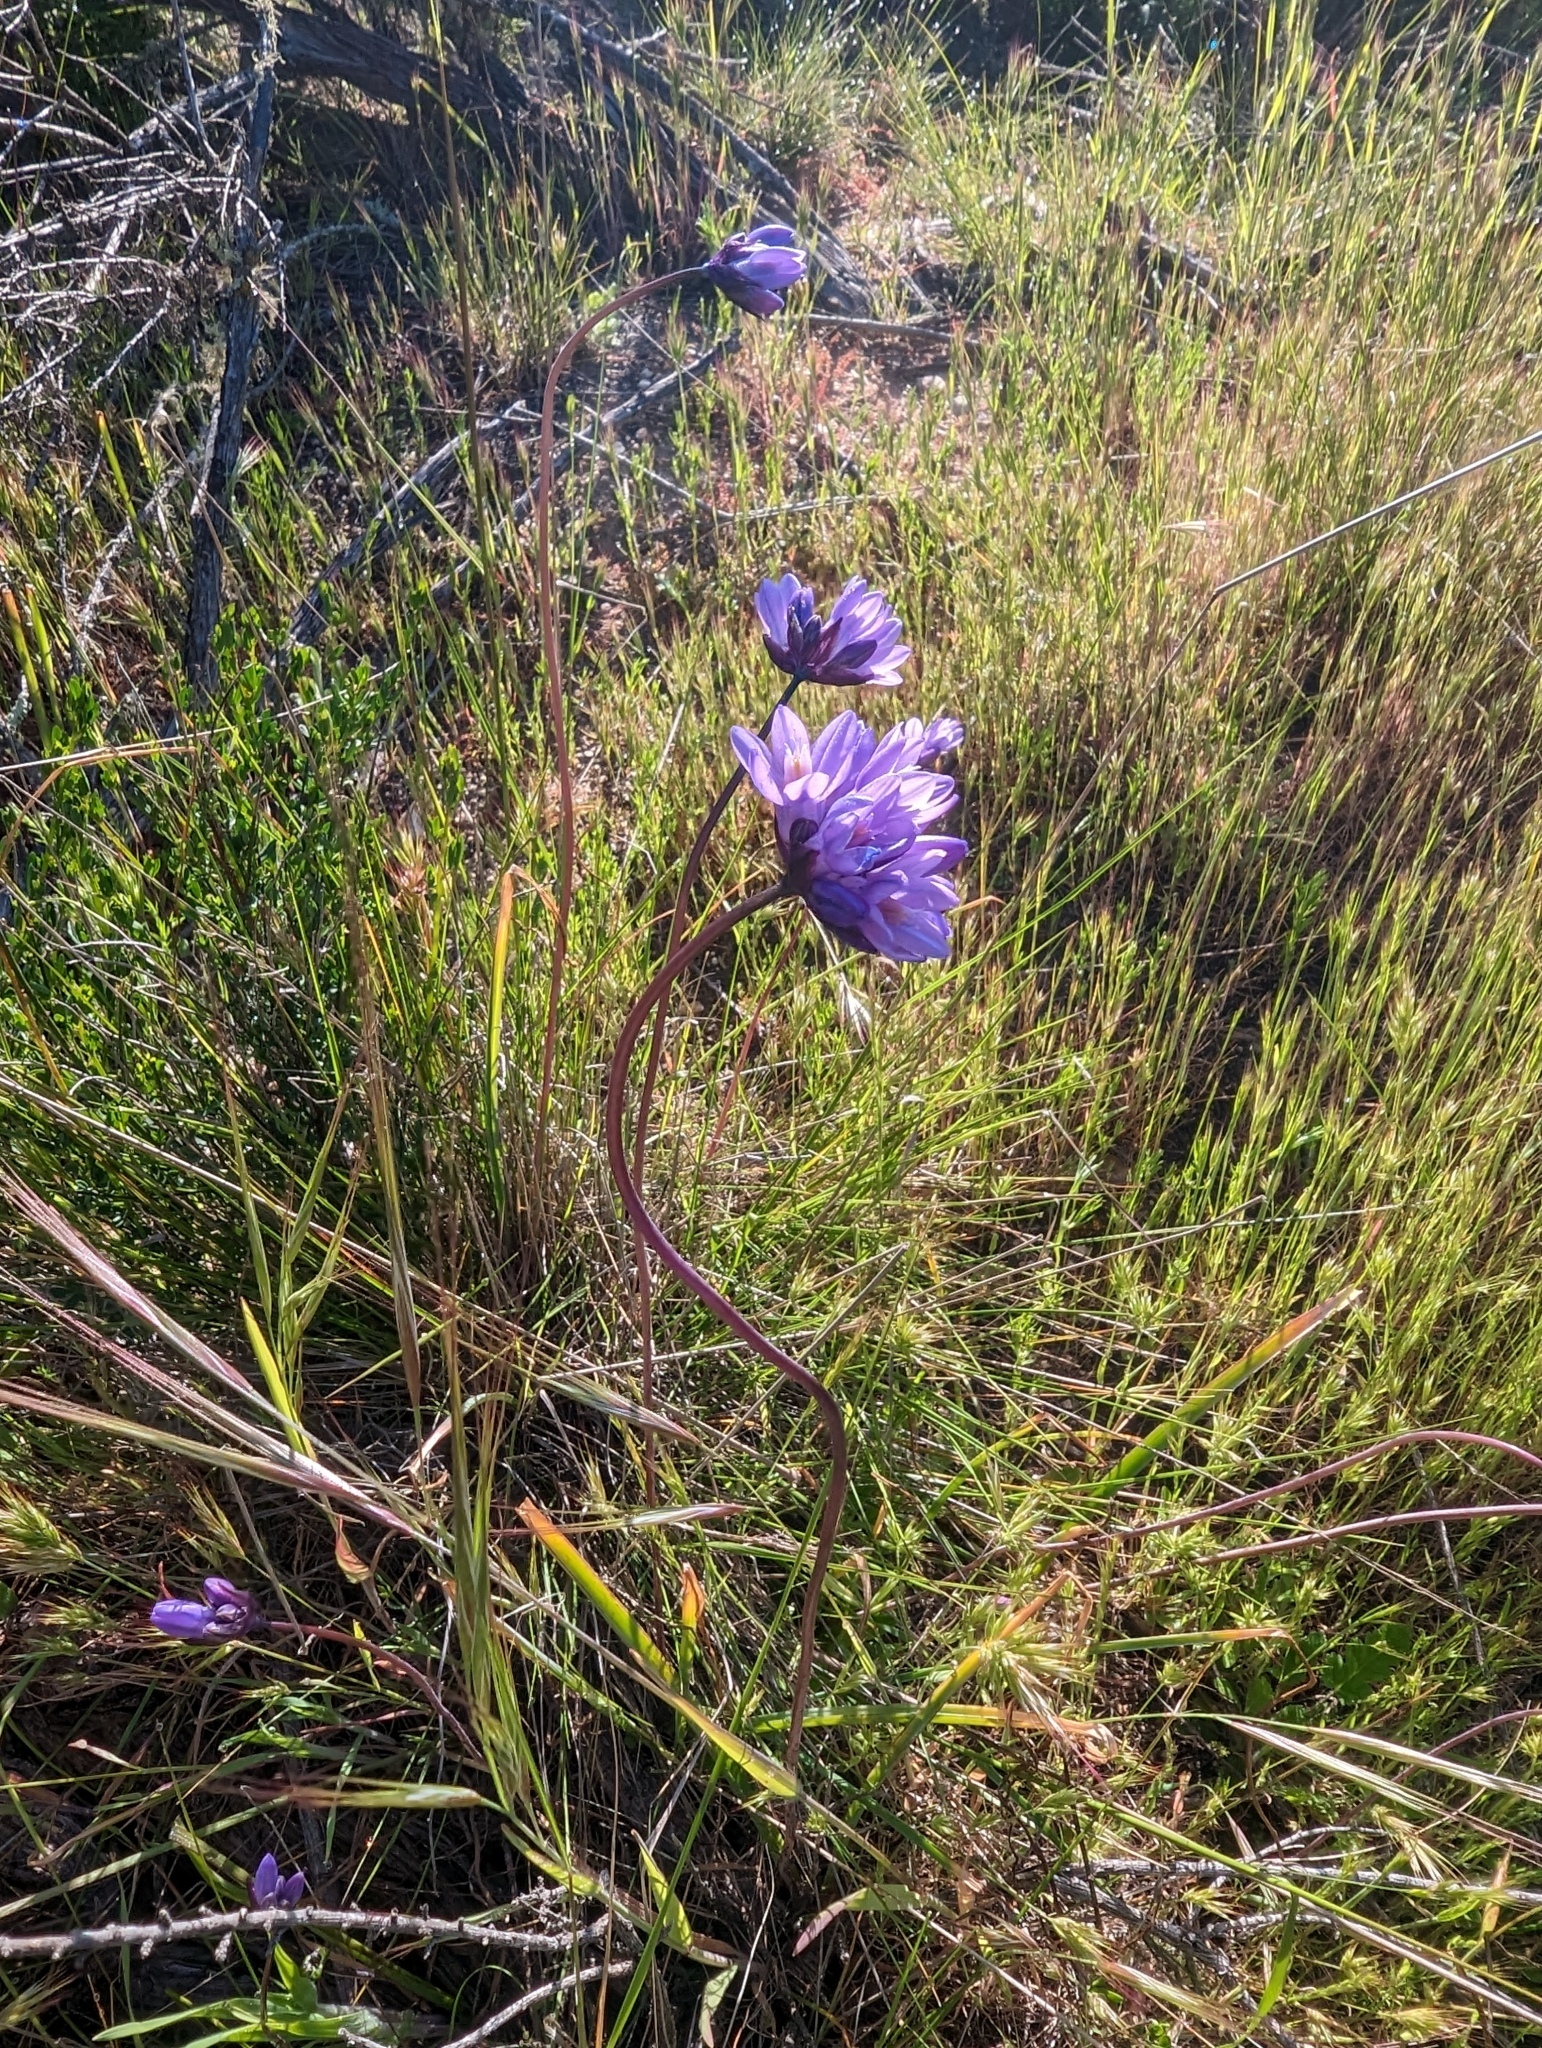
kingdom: Plantae
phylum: Tracheophyta
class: Liliopsida
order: Asparagales
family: Asparagaceae
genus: Dipterostemon
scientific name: Dipterostemon capitatus
